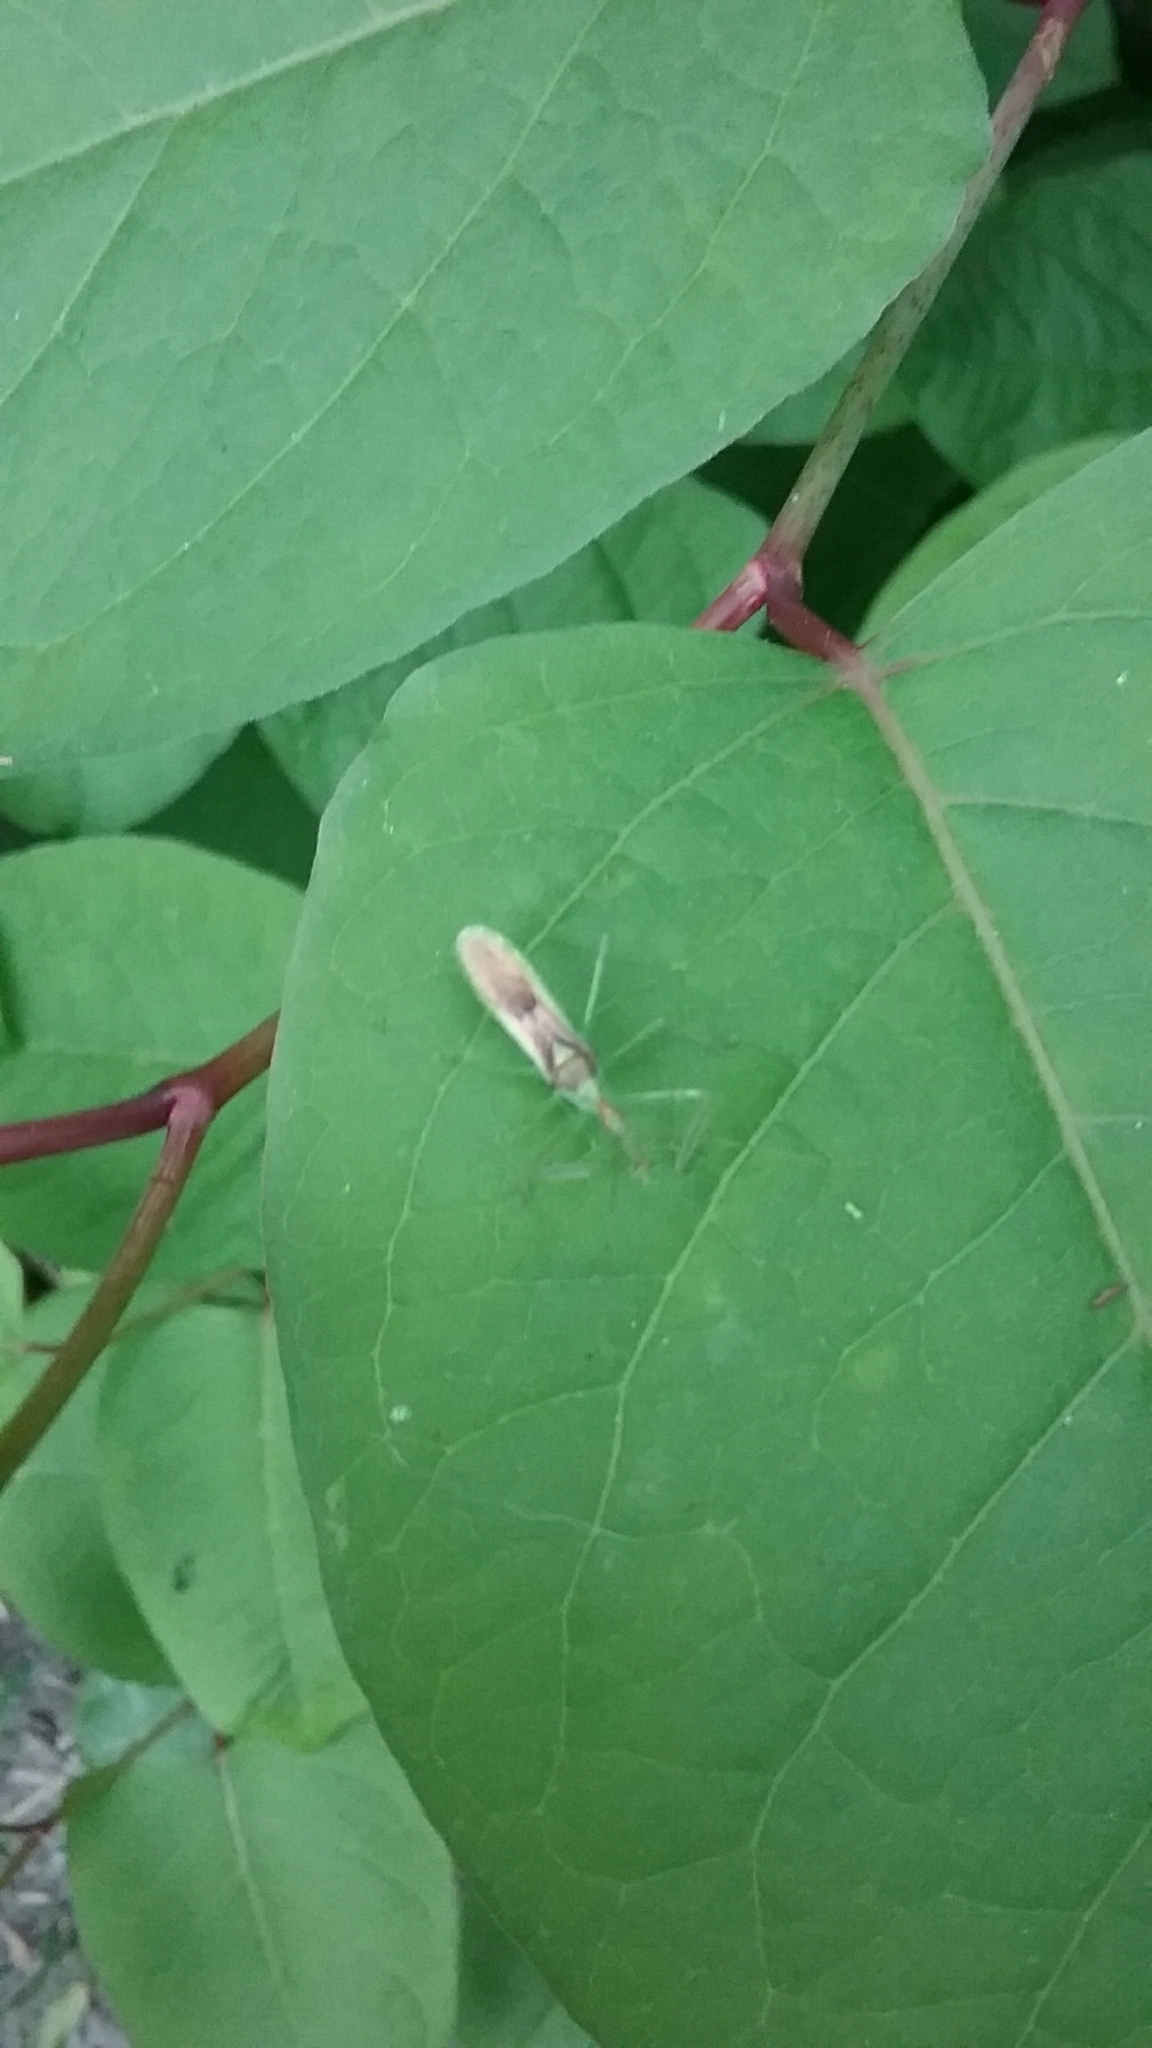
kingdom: Animalia
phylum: Arthropoda
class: Insecta
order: Hemiptera
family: Reduviidae
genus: Zelus
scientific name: Zelus luridus
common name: Pale green assassin bug
